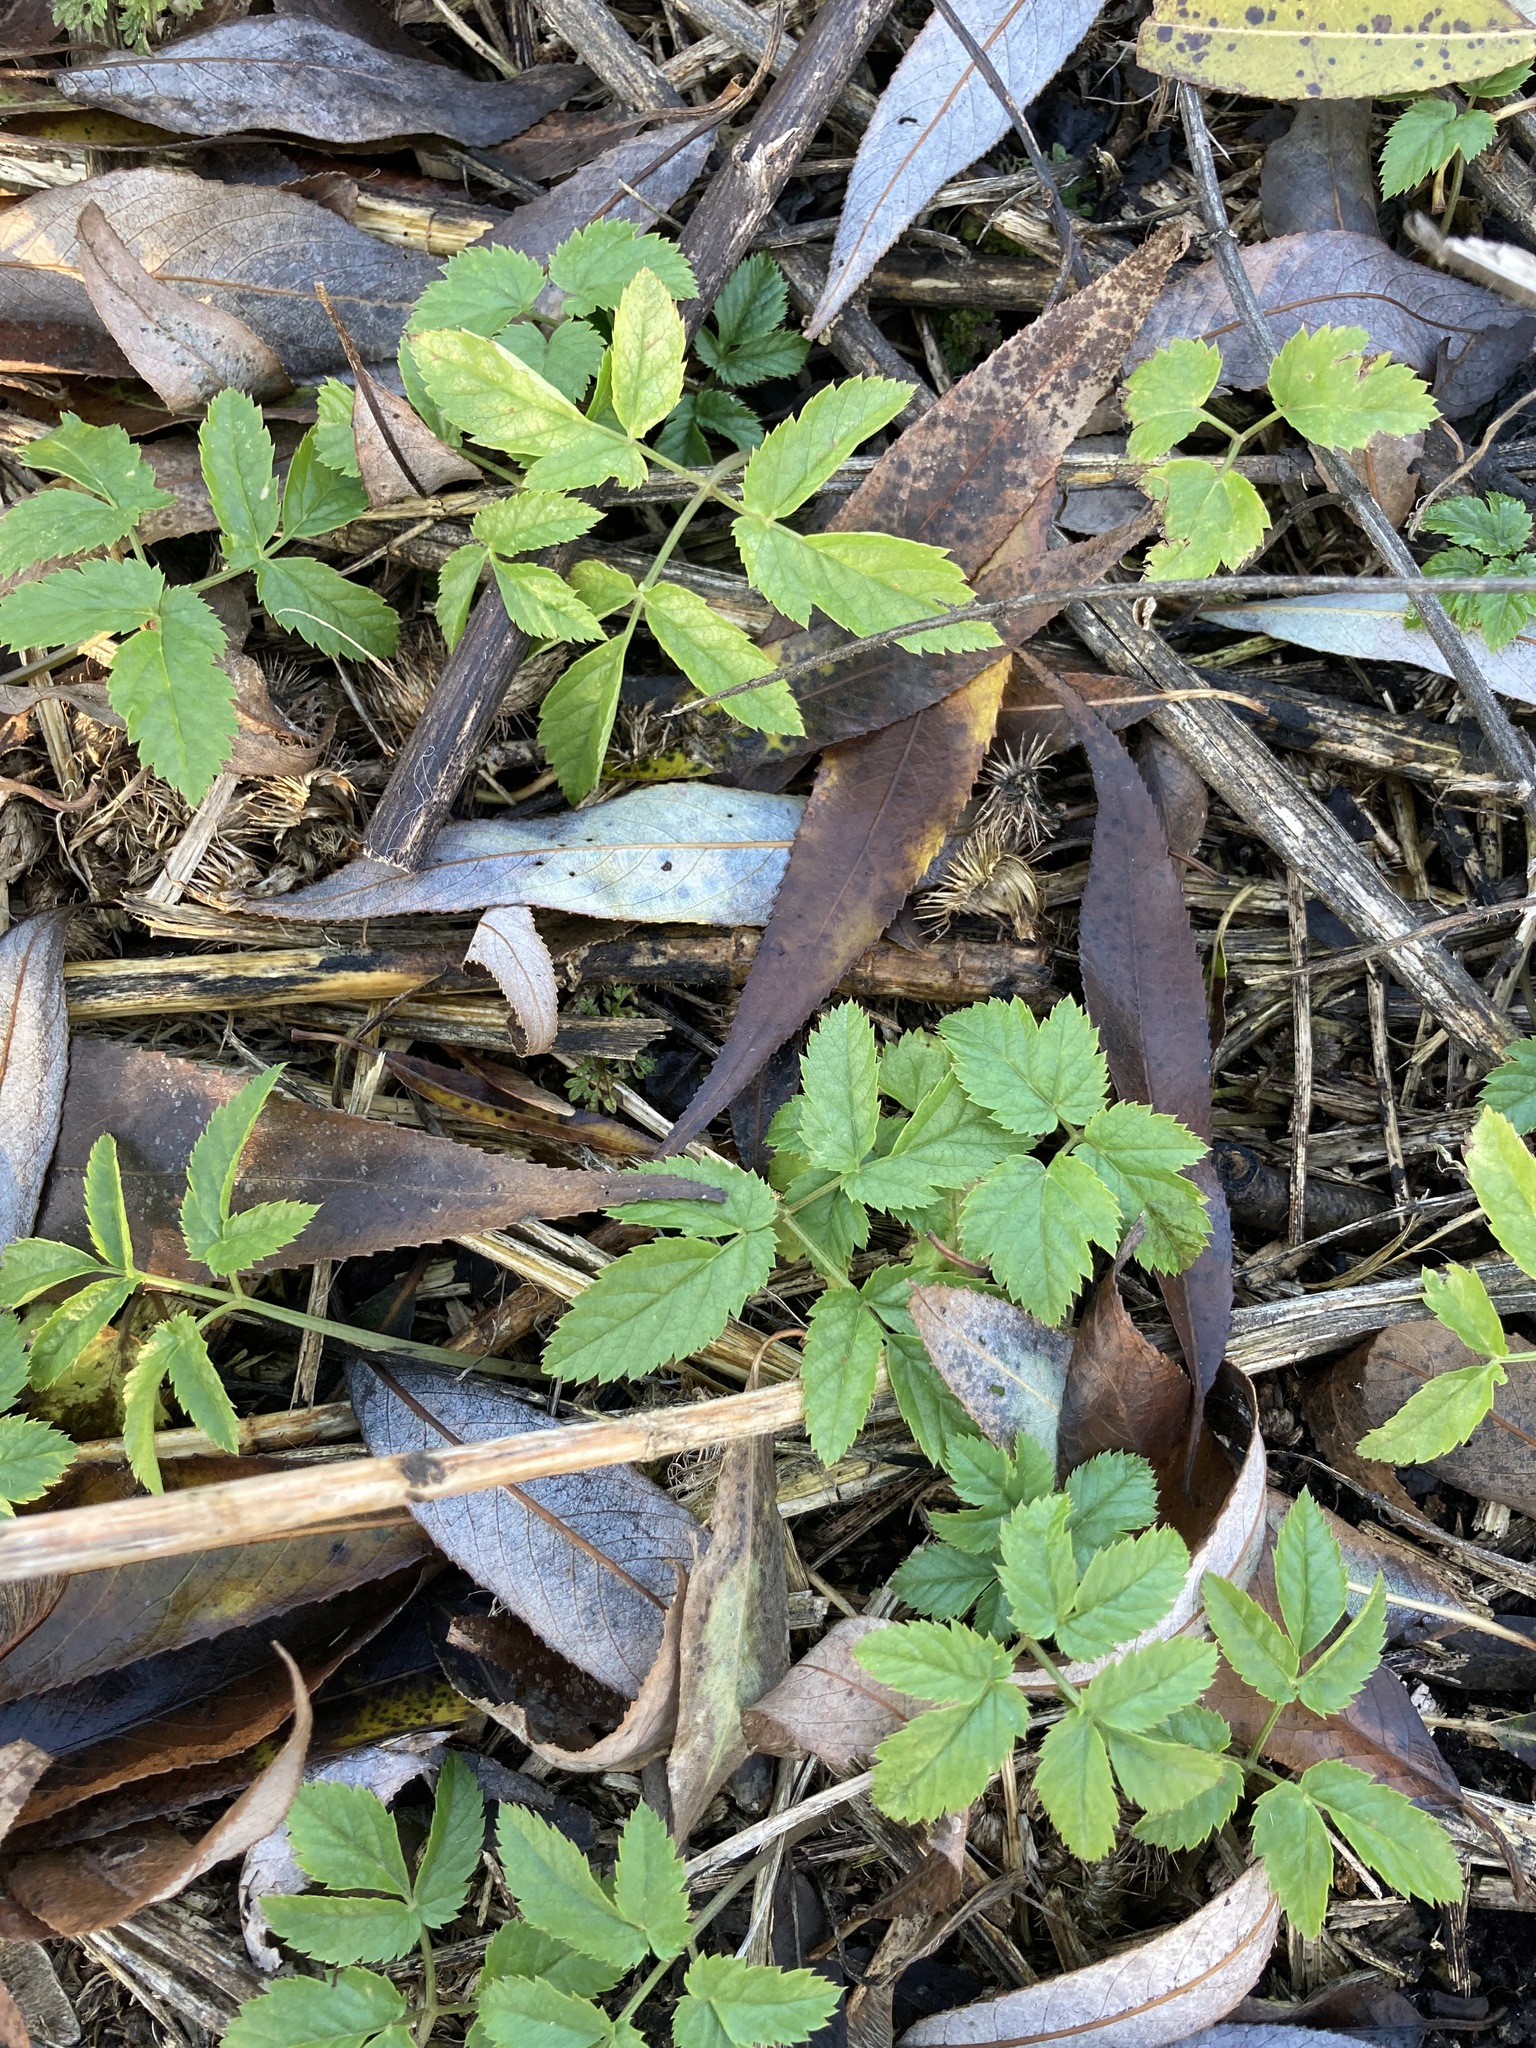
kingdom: Plantae
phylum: Tracheophyta
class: Magnoliopsida
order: Apiales
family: Apiaceae
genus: Aegopodium
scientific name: Aegopodium podagraria
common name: Ground-elder
